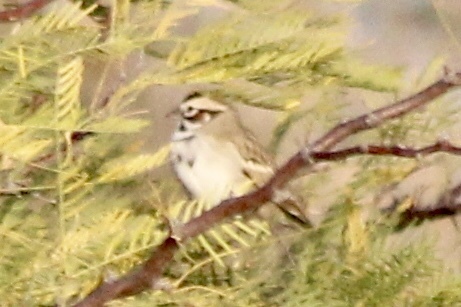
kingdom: Animalia
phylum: Chordata
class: Aves
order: Passeriformes
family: Passerellidae
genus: Chondestes
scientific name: Chondestes grammacus
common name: Lark sparrow
